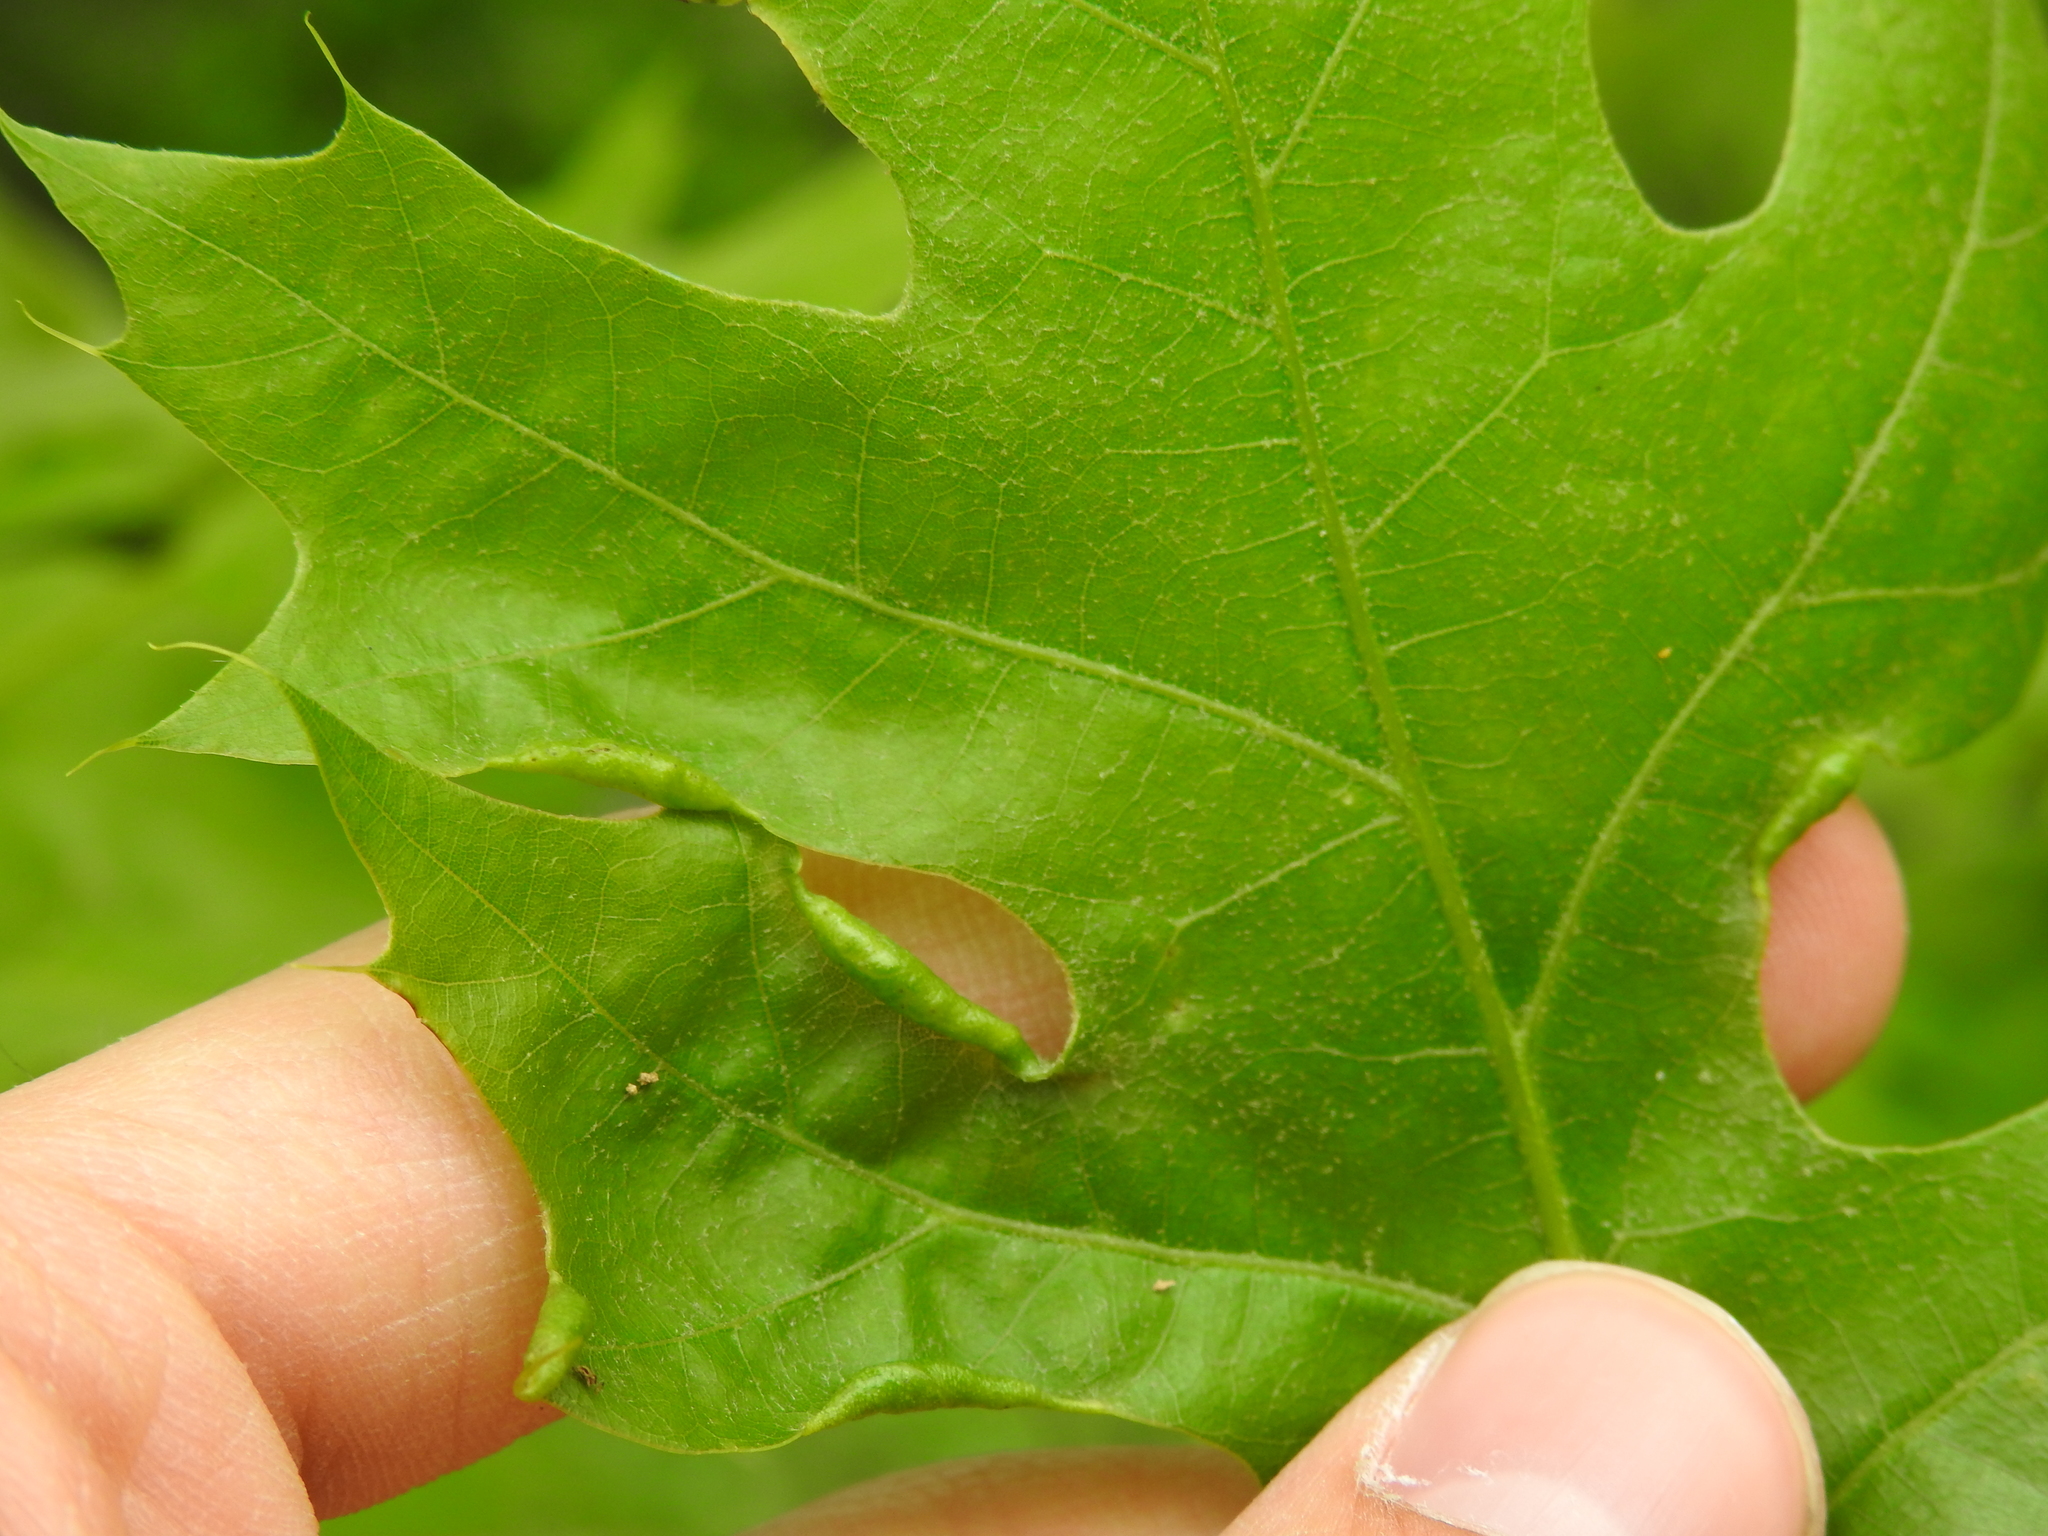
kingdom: Animalia
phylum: Arthropoda
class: Insecta
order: Diptera
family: Cecidomyiidae
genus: Macrodiplosis
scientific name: Macrodiplosis erubescens
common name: Marginal leaf fold gall midge
